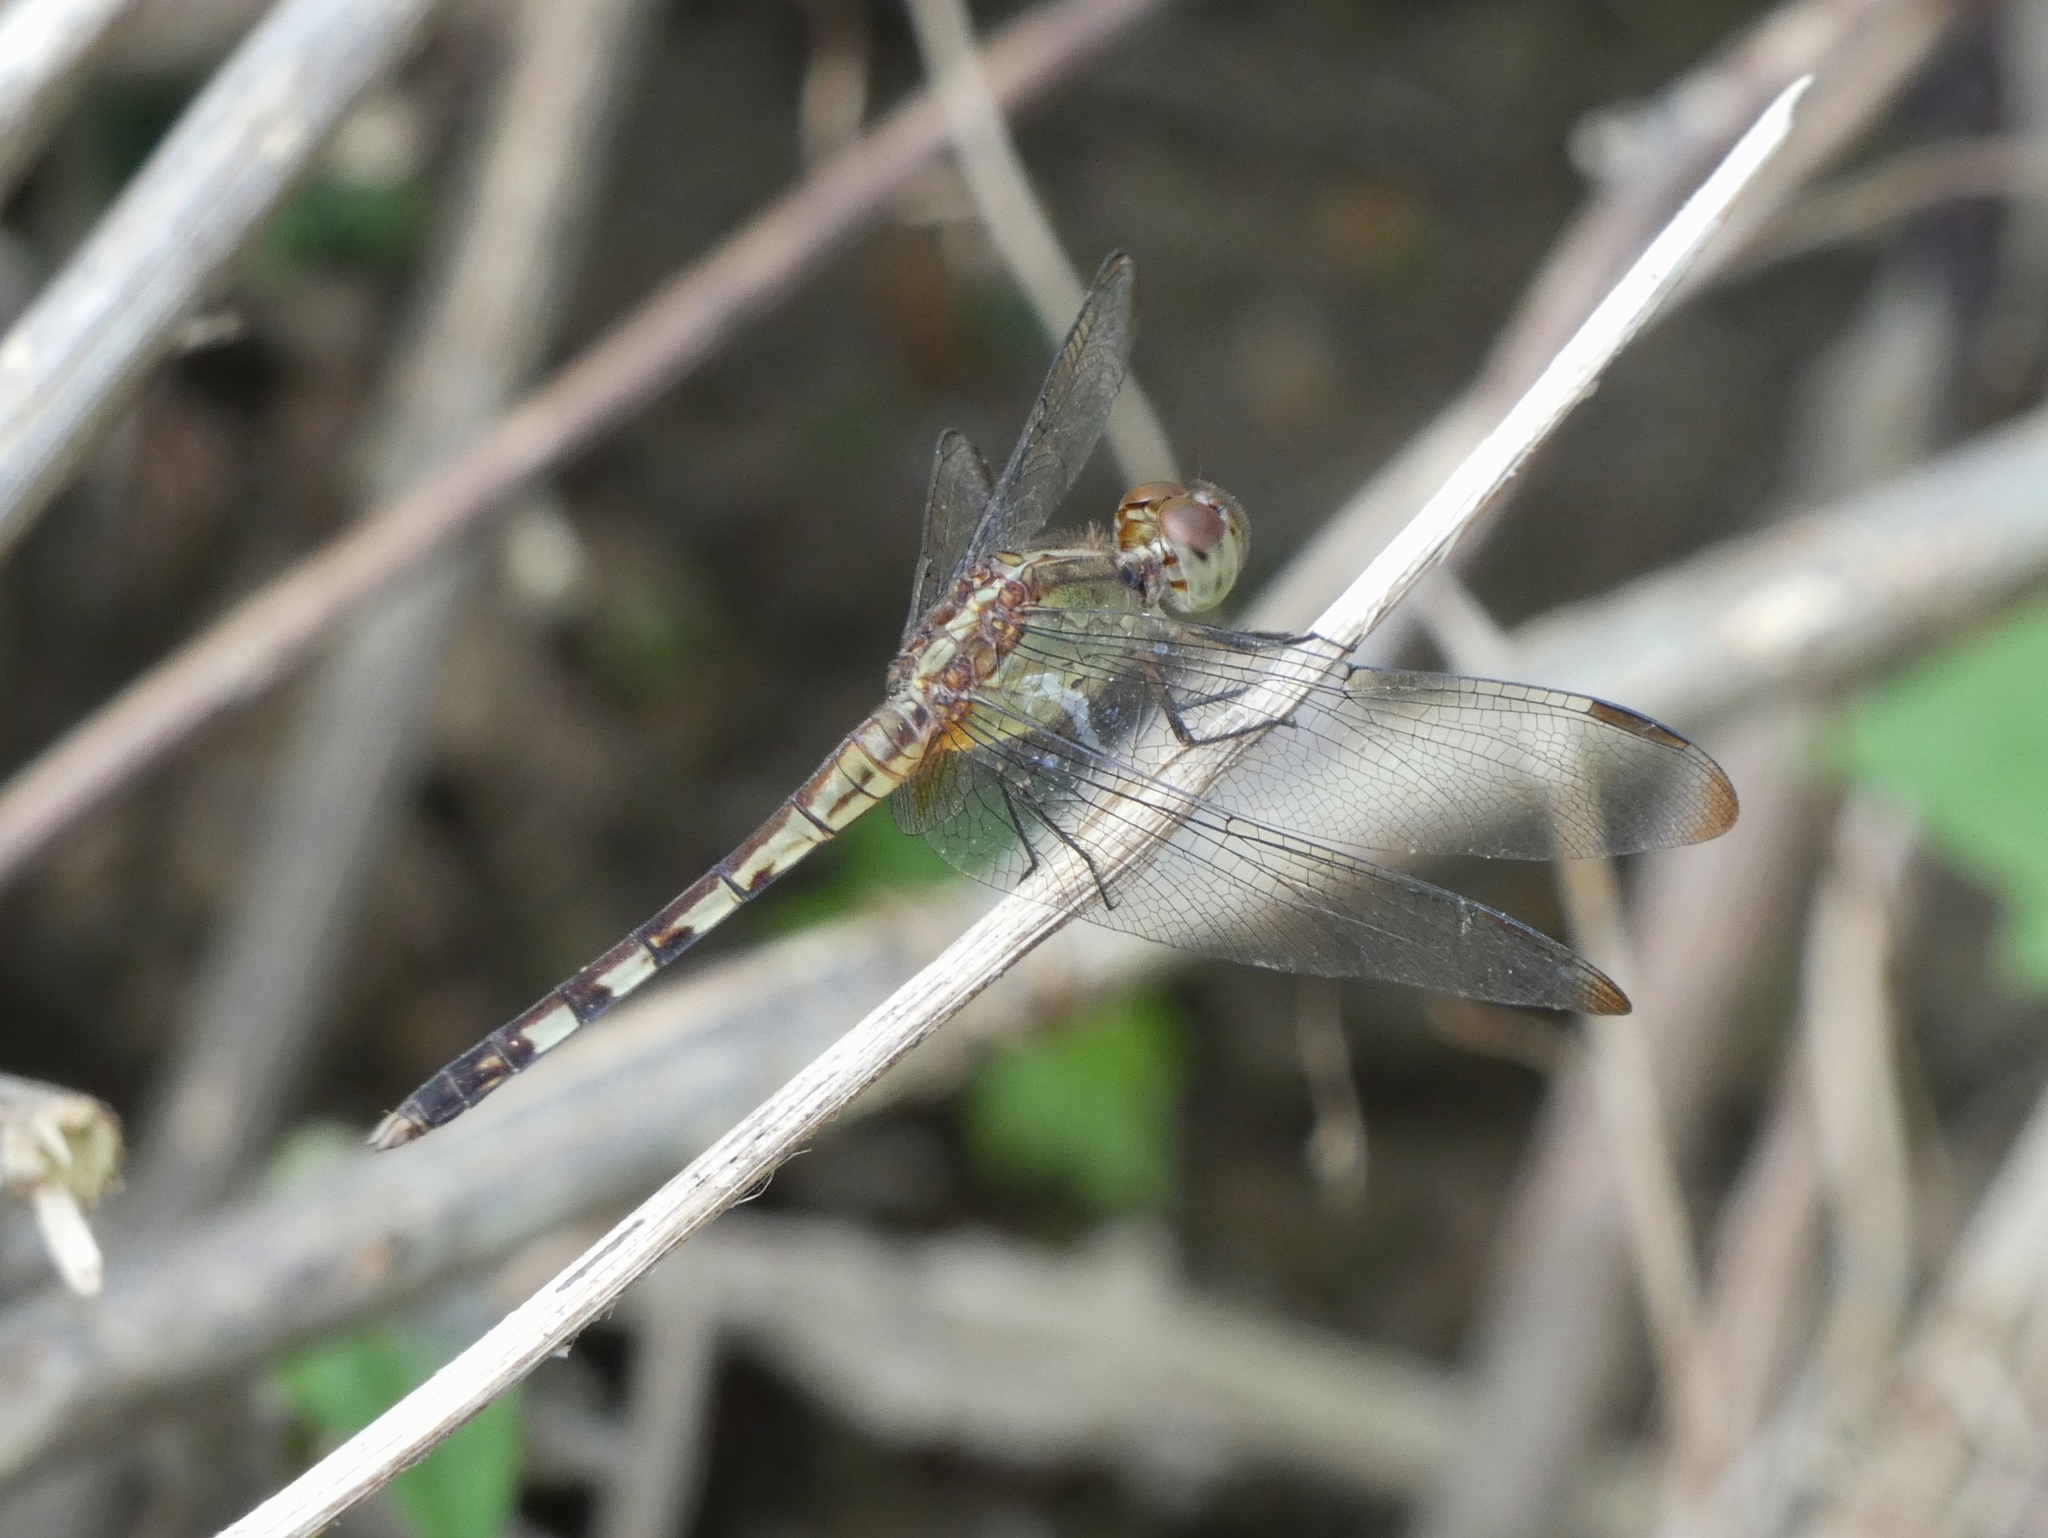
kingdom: Animalia
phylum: Arthropoda
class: Insecta
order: Odonata
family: Libellulidae
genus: Erythrodiplax
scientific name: Erythrodiplax umbrata
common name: Band-winged dragonlet
